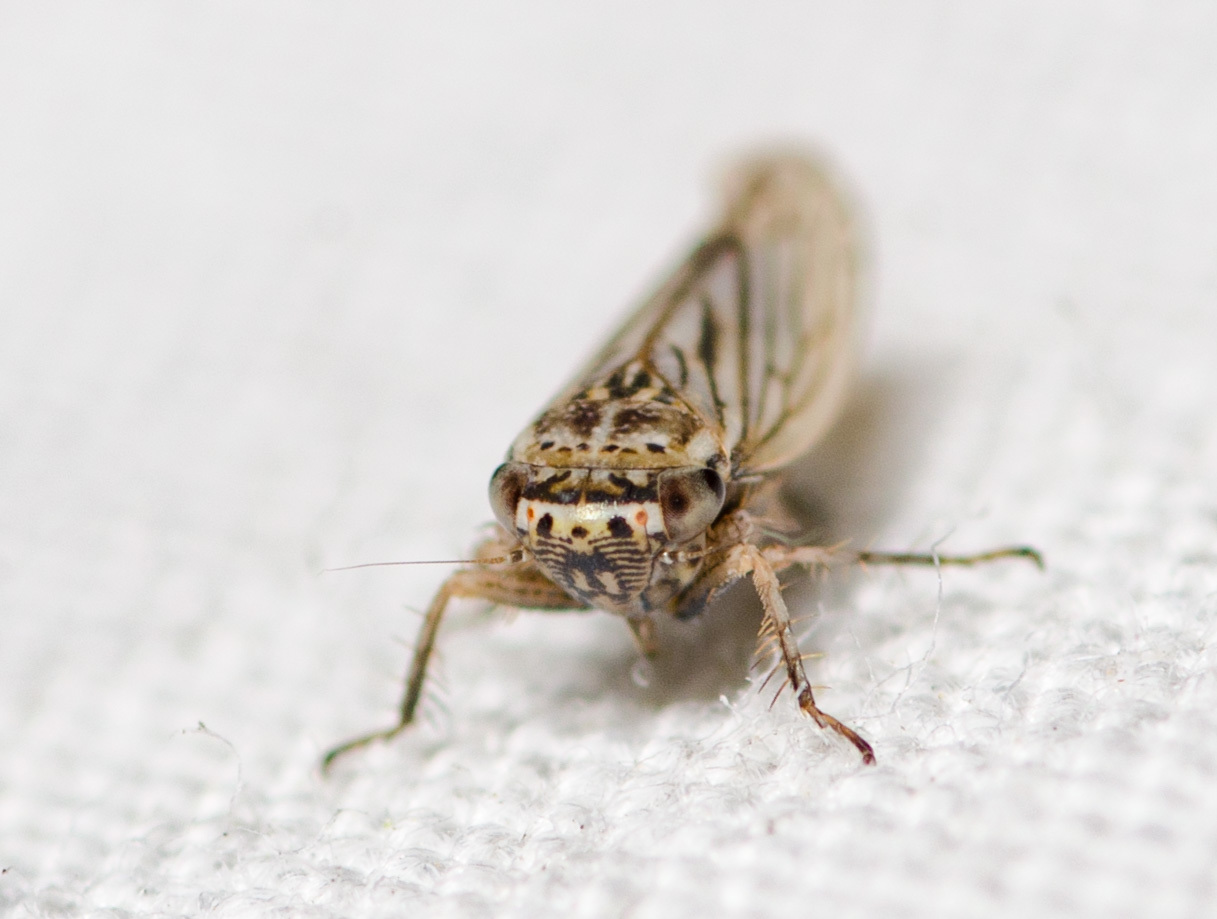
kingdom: Animalia
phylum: Arthropoda
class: Insecta
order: Hemiptera
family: Cicadellidae
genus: Exitianus
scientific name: Exitianus exitiosus
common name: Gray lawn leafhopper
